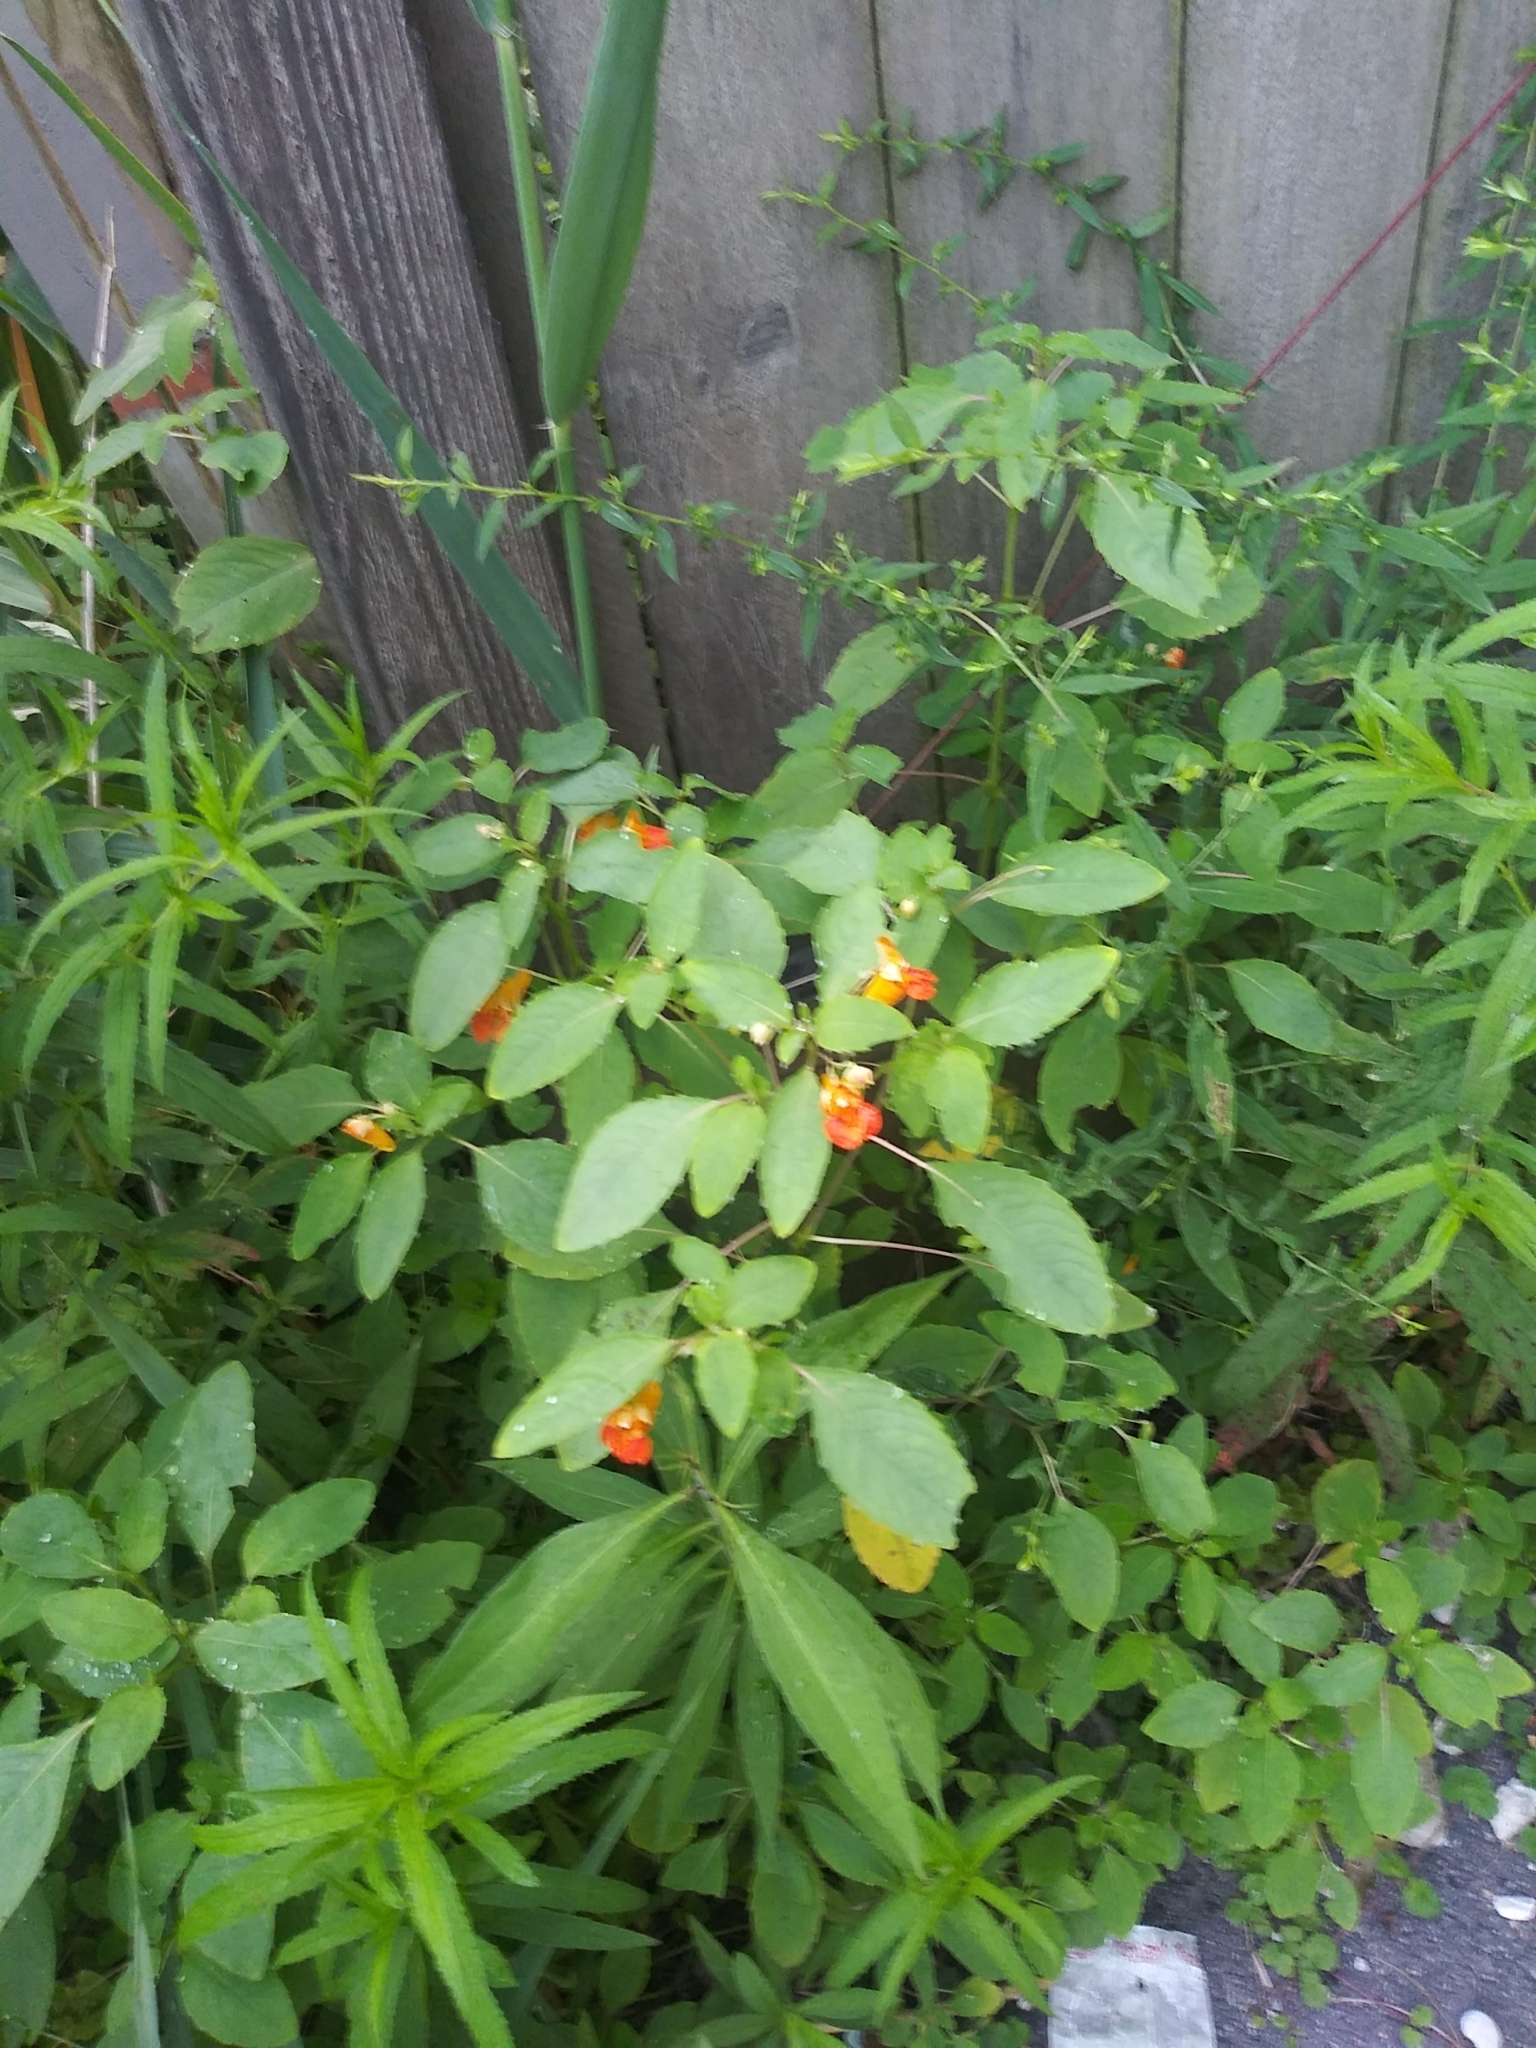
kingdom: Plantae
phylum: Tracheophyta
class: Magnoliopsida
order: Ericales
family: Balsaminaceae
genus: Impatiens
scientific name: Impatiens capensis
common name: Orange balsam
